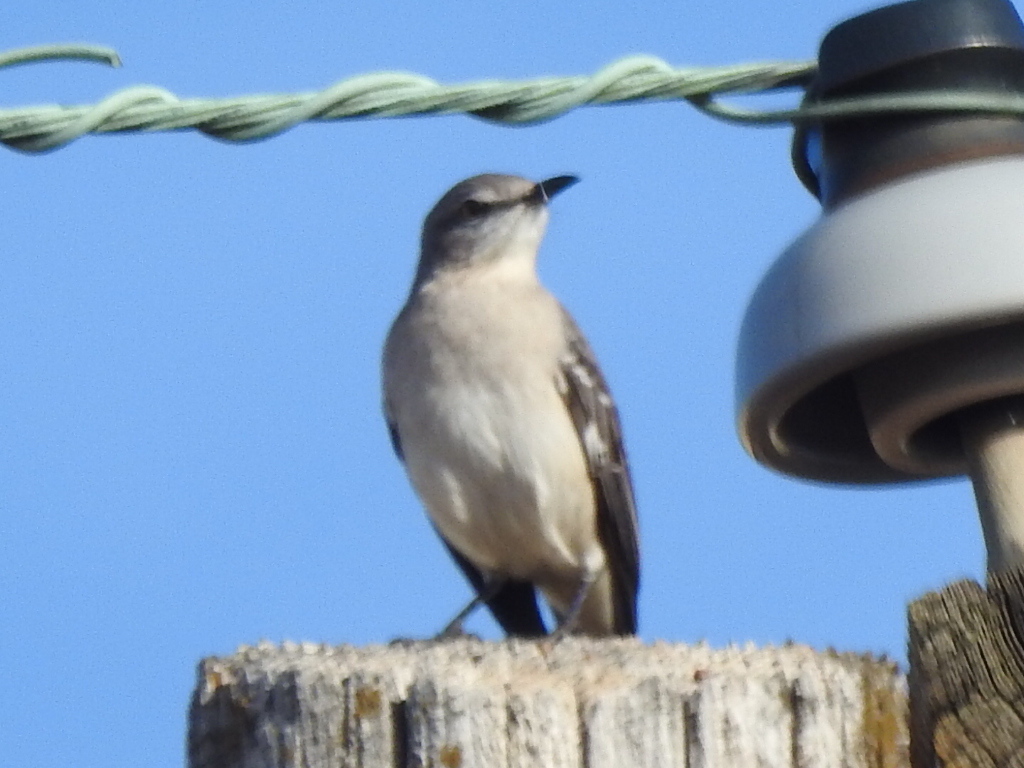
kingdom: Animalia
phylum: Chordata
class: Aves
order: Passeriformes
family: Mimidae
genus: Mimus
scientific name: Mimus polyglottos
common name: Northern mockingbird
